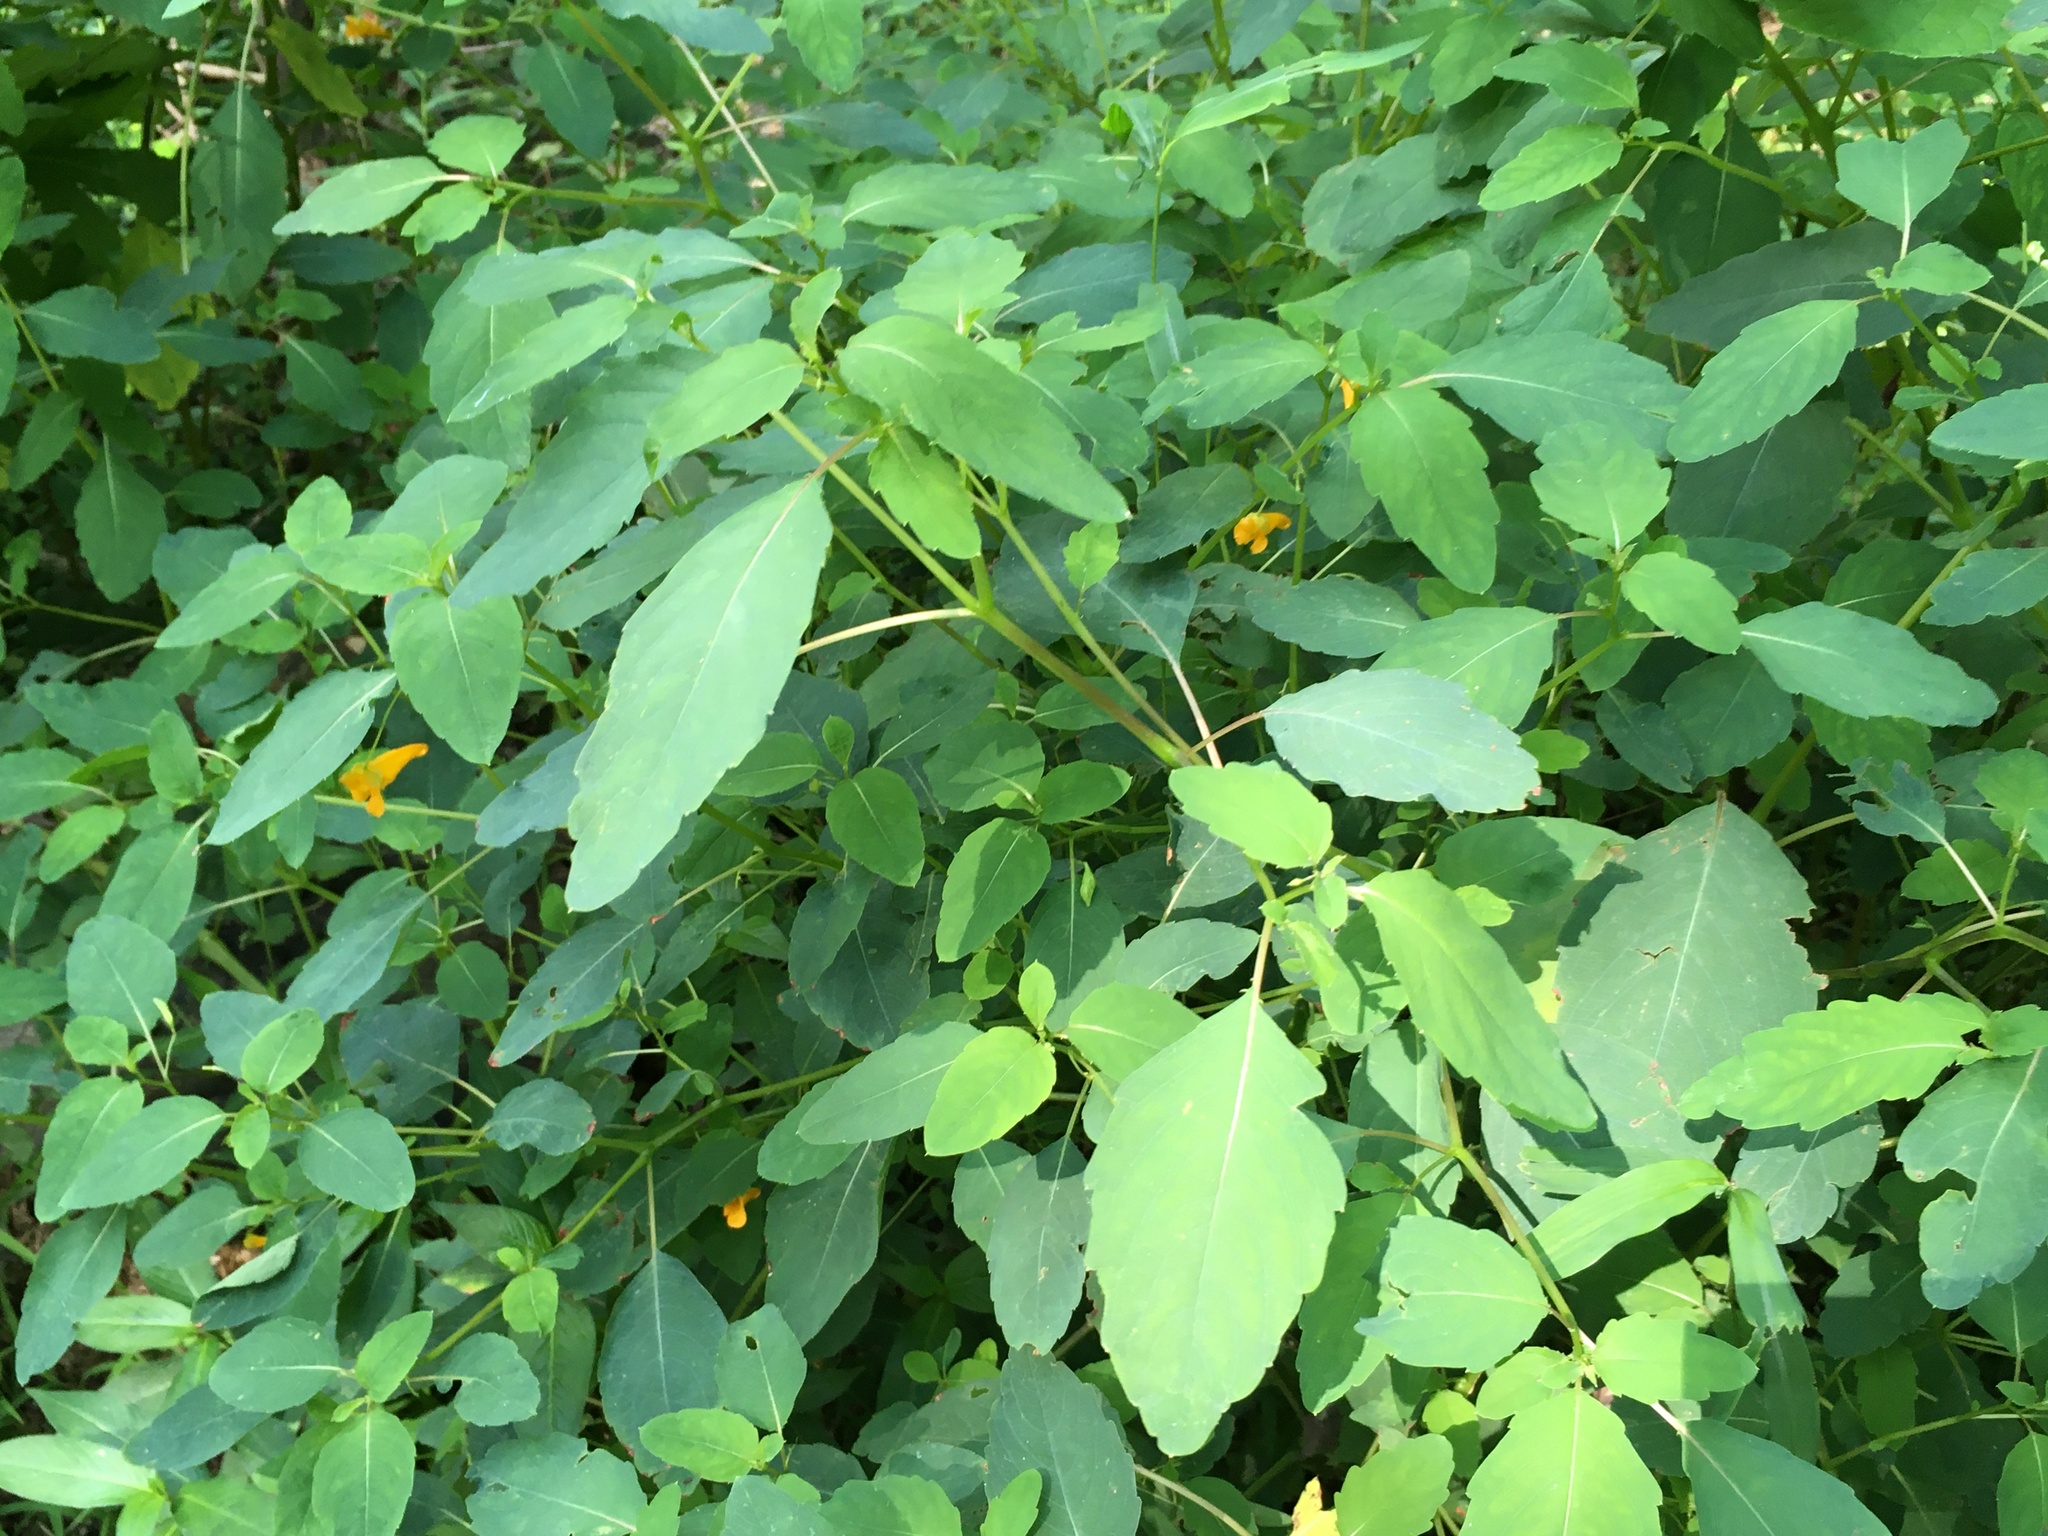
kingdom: Plantae
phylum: Tracheophyta
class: Magnoliopsida
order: Ericales
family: Balsaminaceae
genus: Impatiens
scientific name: Impatiens capensis
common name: Orange balsam
